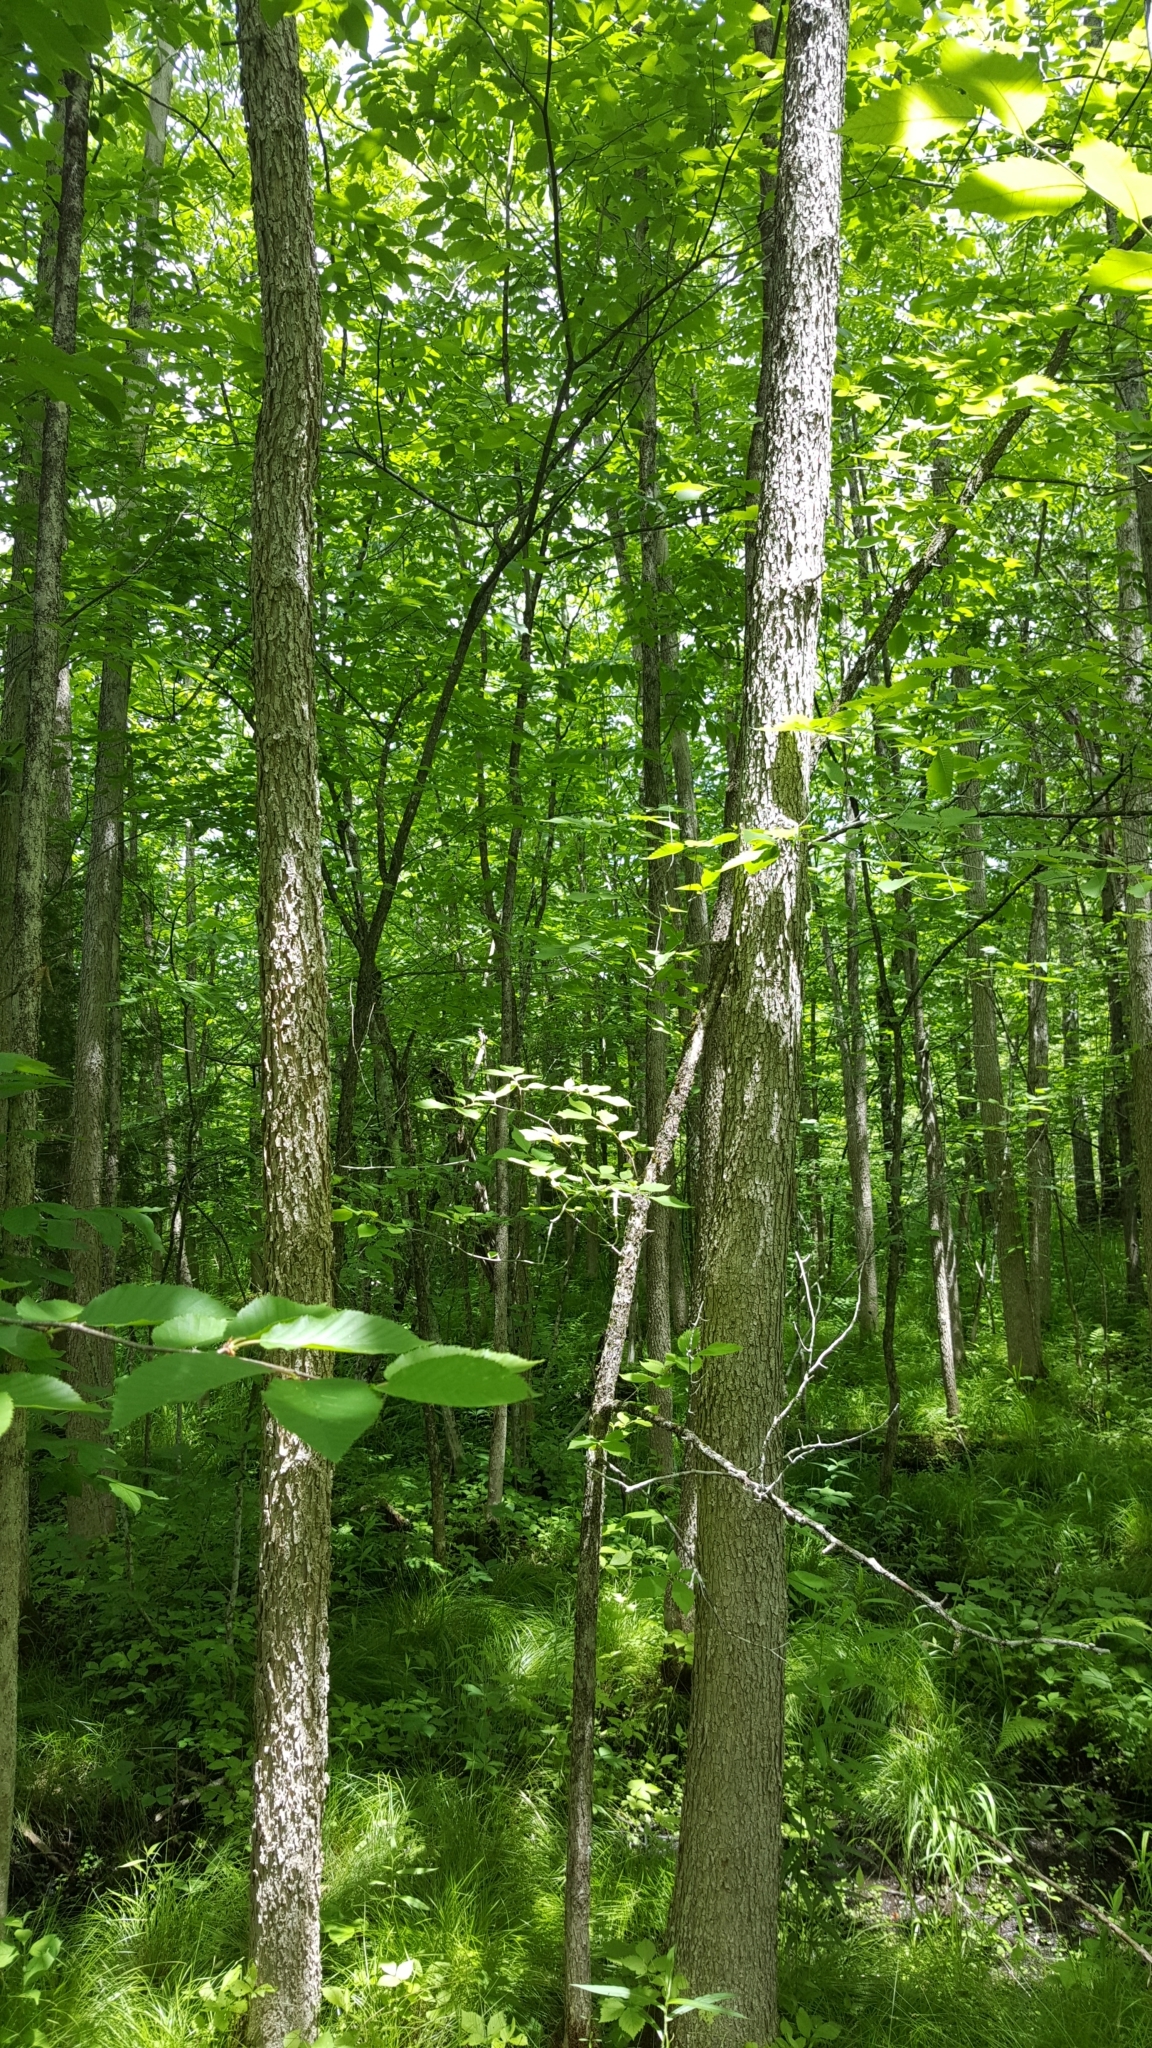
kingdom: Plantae
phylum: Tracheophyta
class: Magnoliopsida
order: Lamiales
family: Oleaceae
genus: Fraxinus
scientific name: Fraxinus nigra
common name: Black ash
